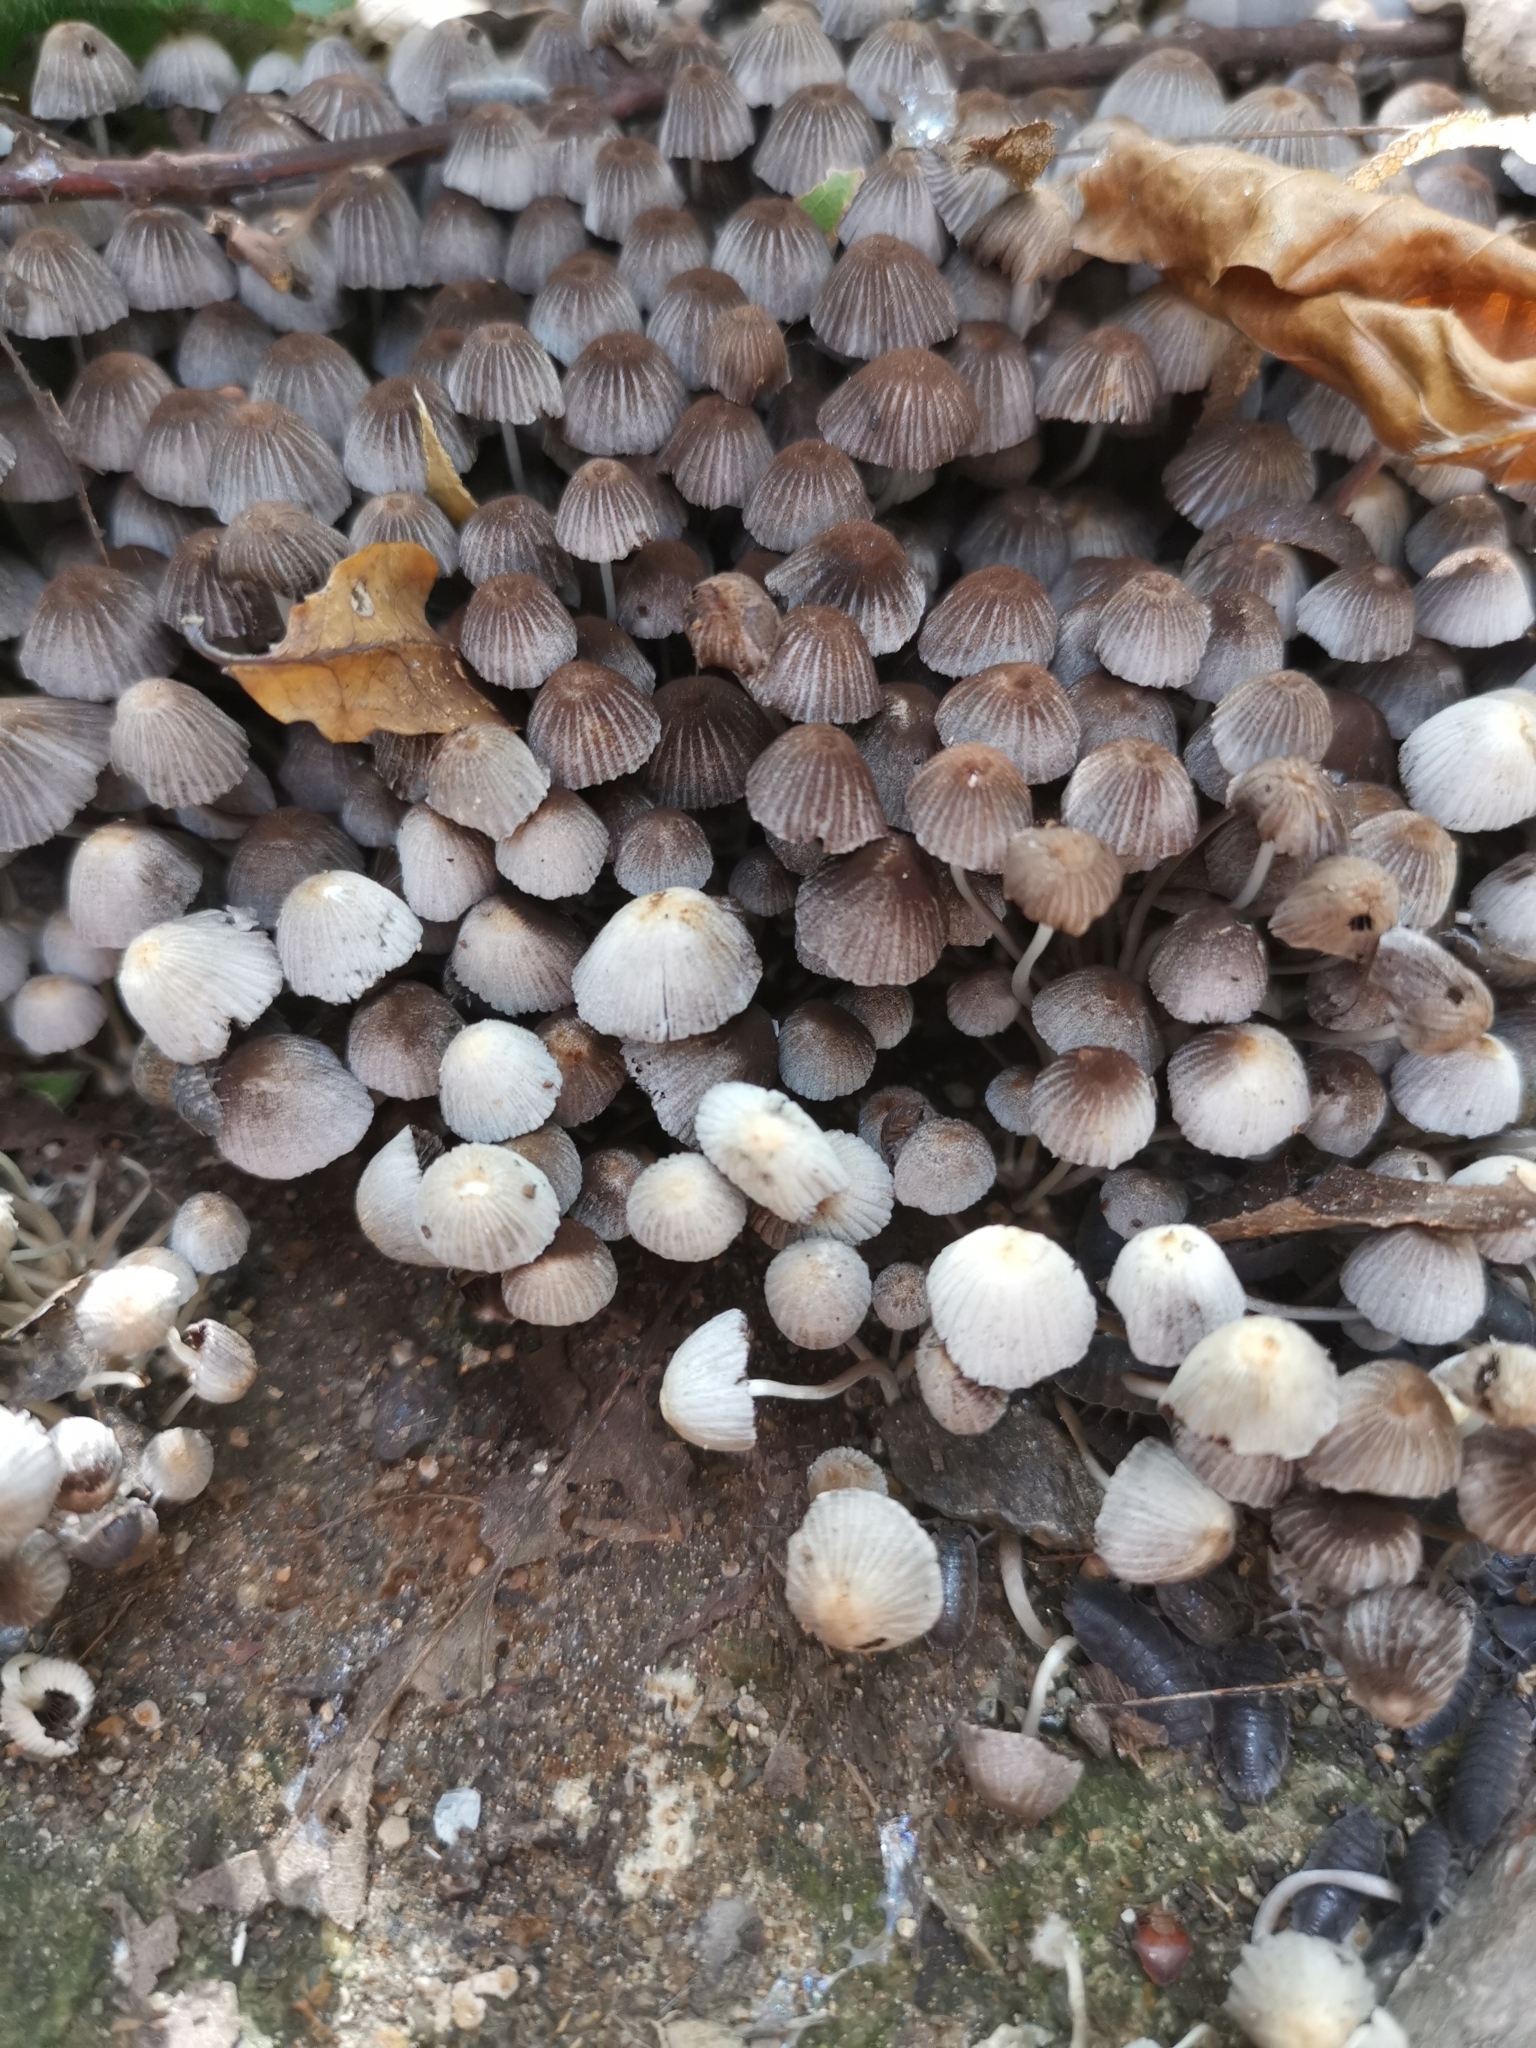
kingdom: Fungi
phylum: Basidiomycota
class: Agaricomycetes
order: Agaricales
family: Psathyrellaceae
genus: Coprinellus
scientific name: Coprinellus disseminatus
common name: Fairies' bonnets
